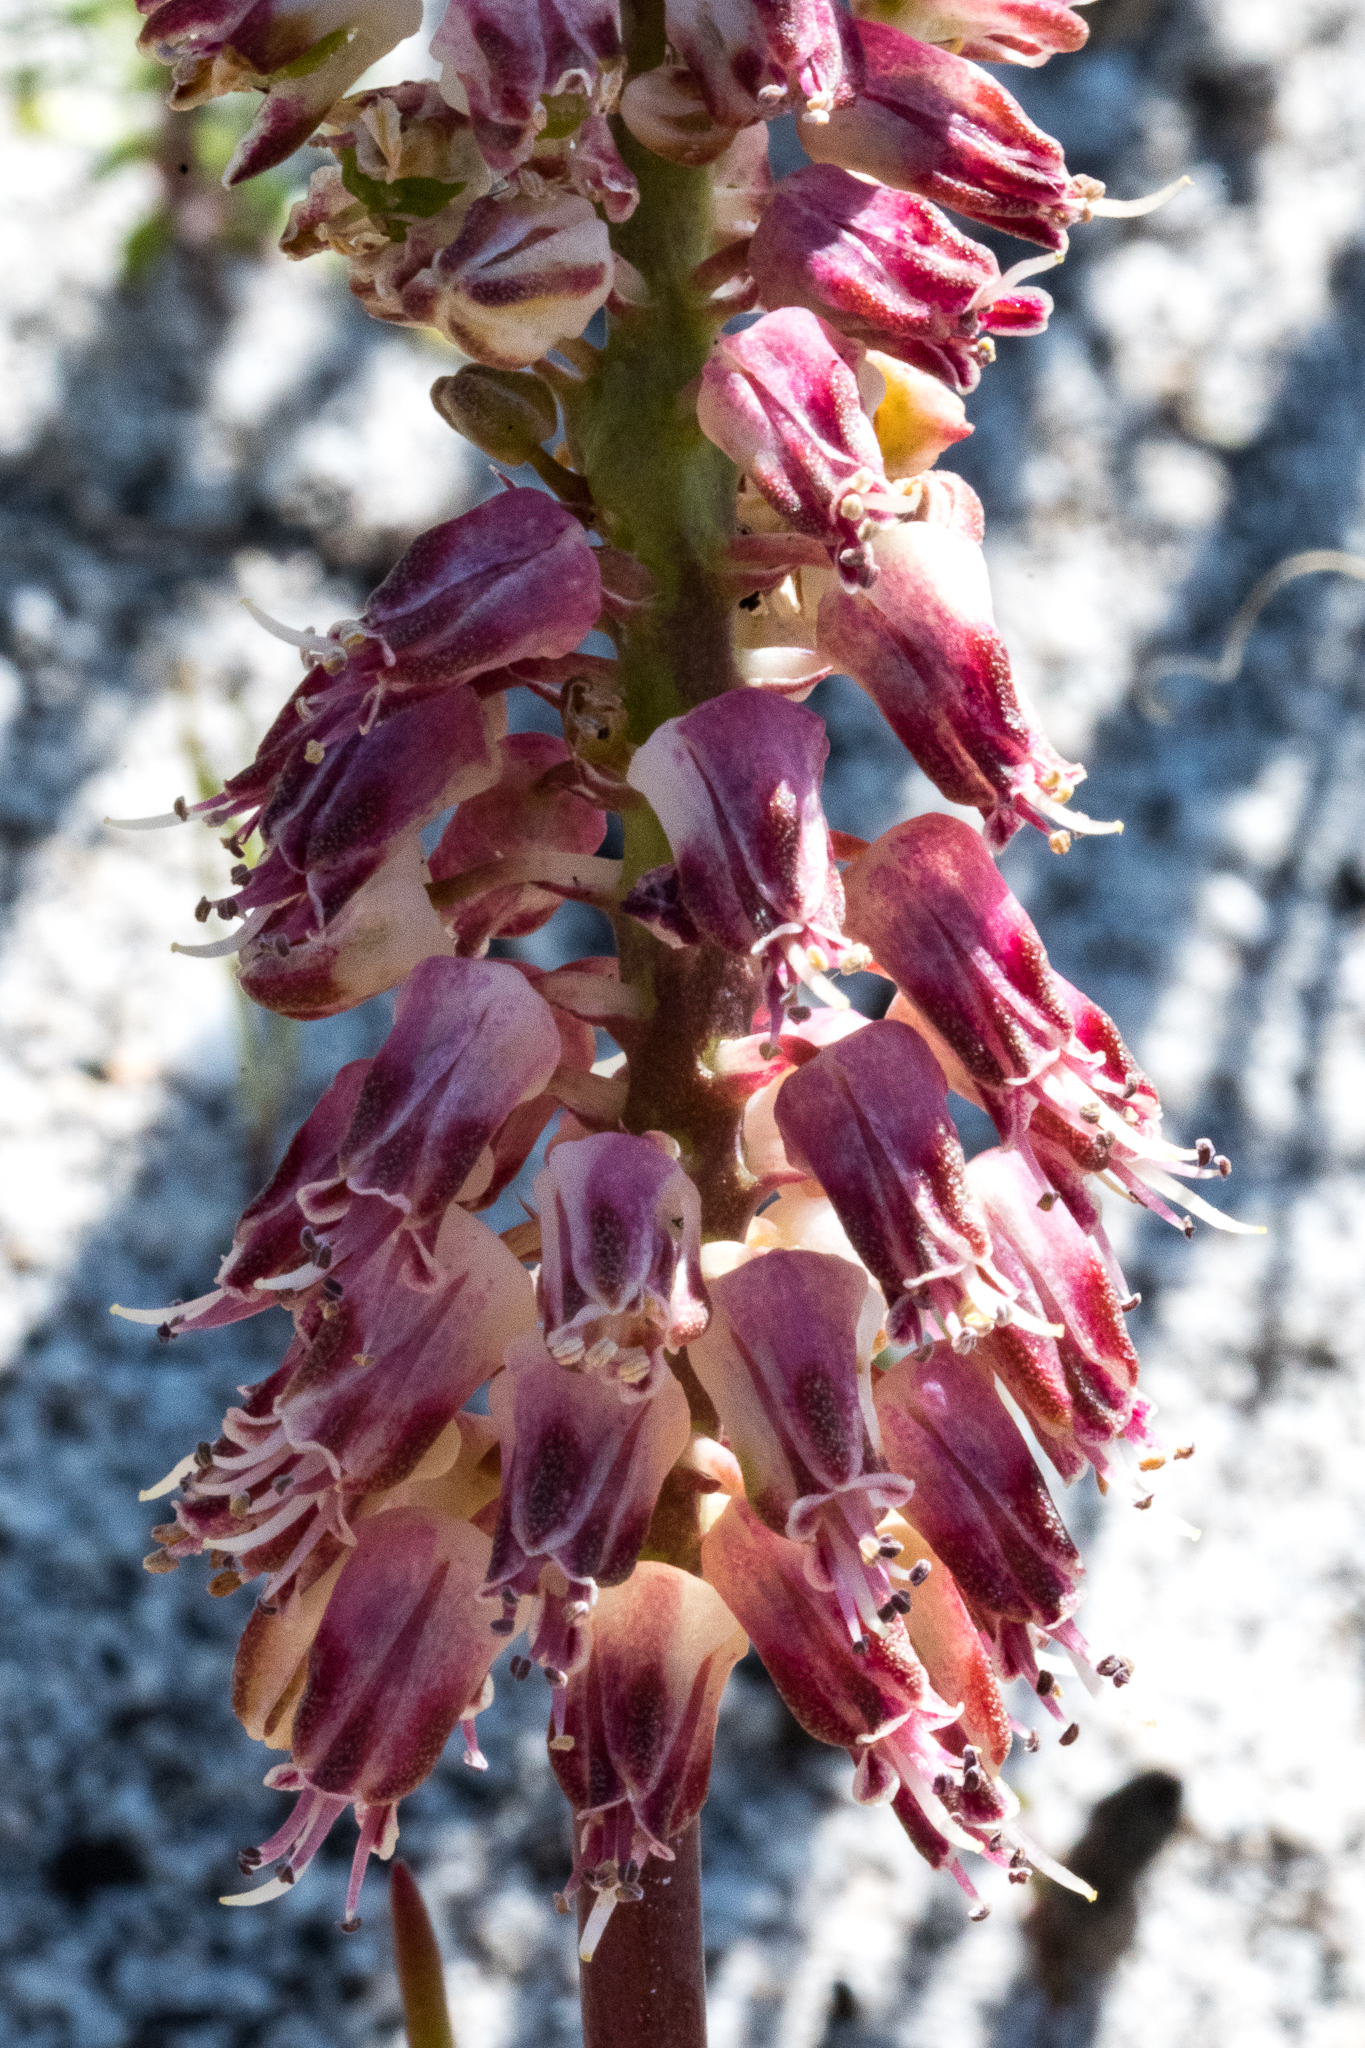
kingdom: Plantae
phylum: Tracheophyta
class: Liliopsida
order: Asparagales
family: Asparagaceae
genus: Lachenalia
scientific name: Lachenalia montana
